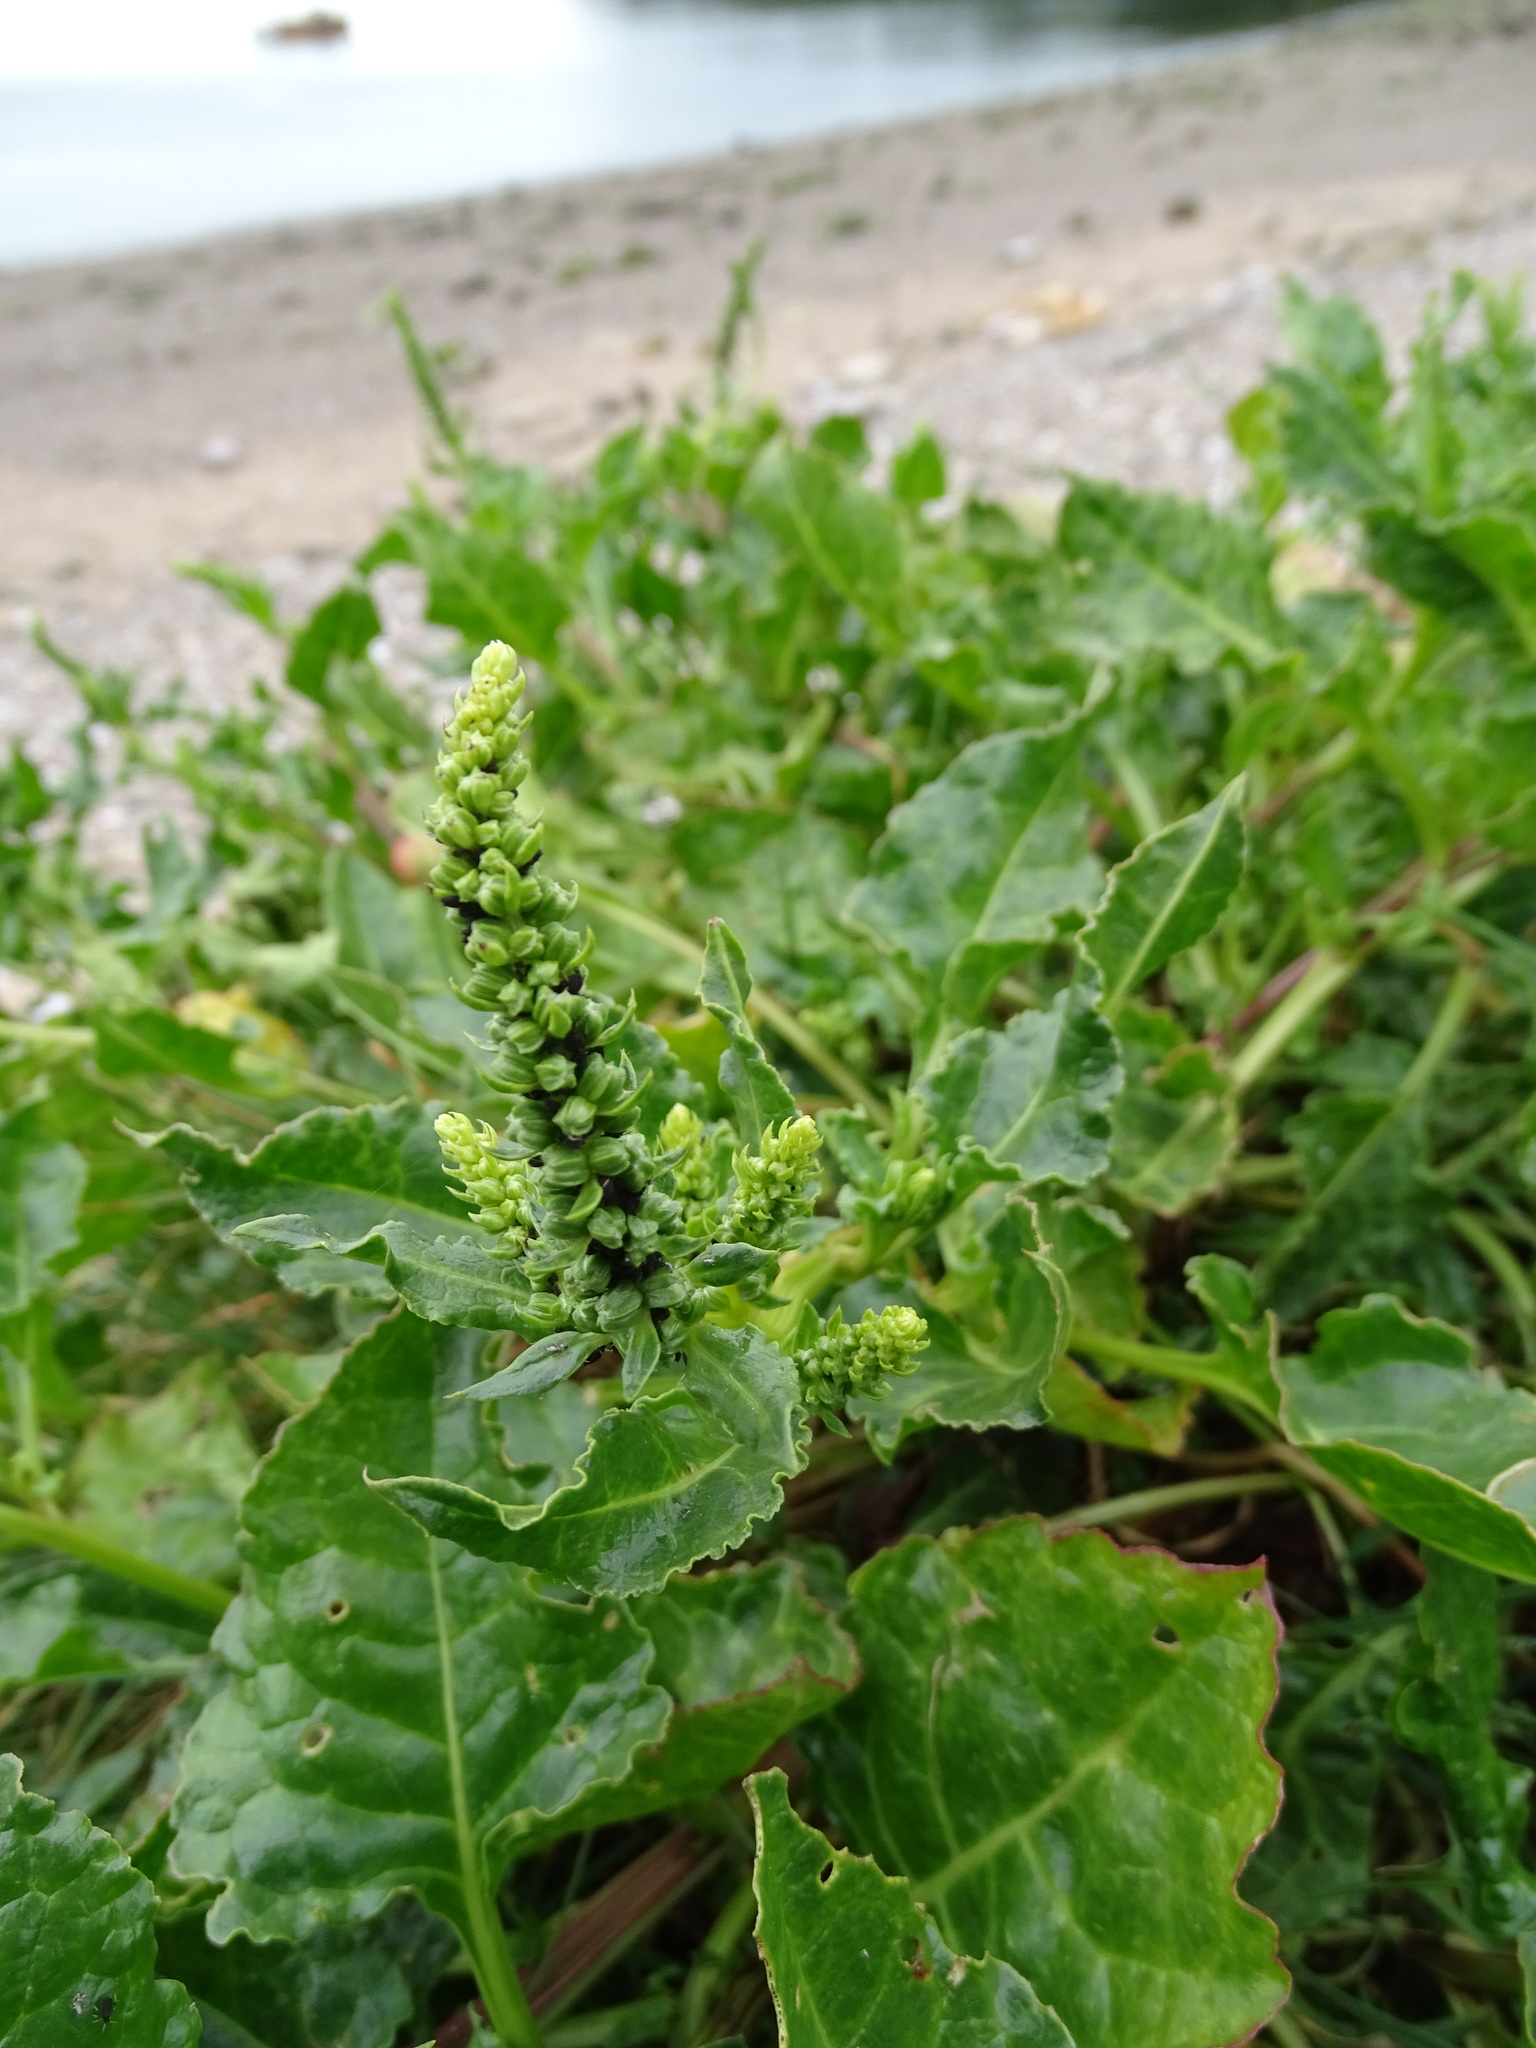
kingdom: Plantae
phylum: Tracheophyta
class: Magnoliopsida
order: Caryophyllales
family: Amaranthaceae
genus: Beta
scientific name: Beta vulgaris
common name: Beet
